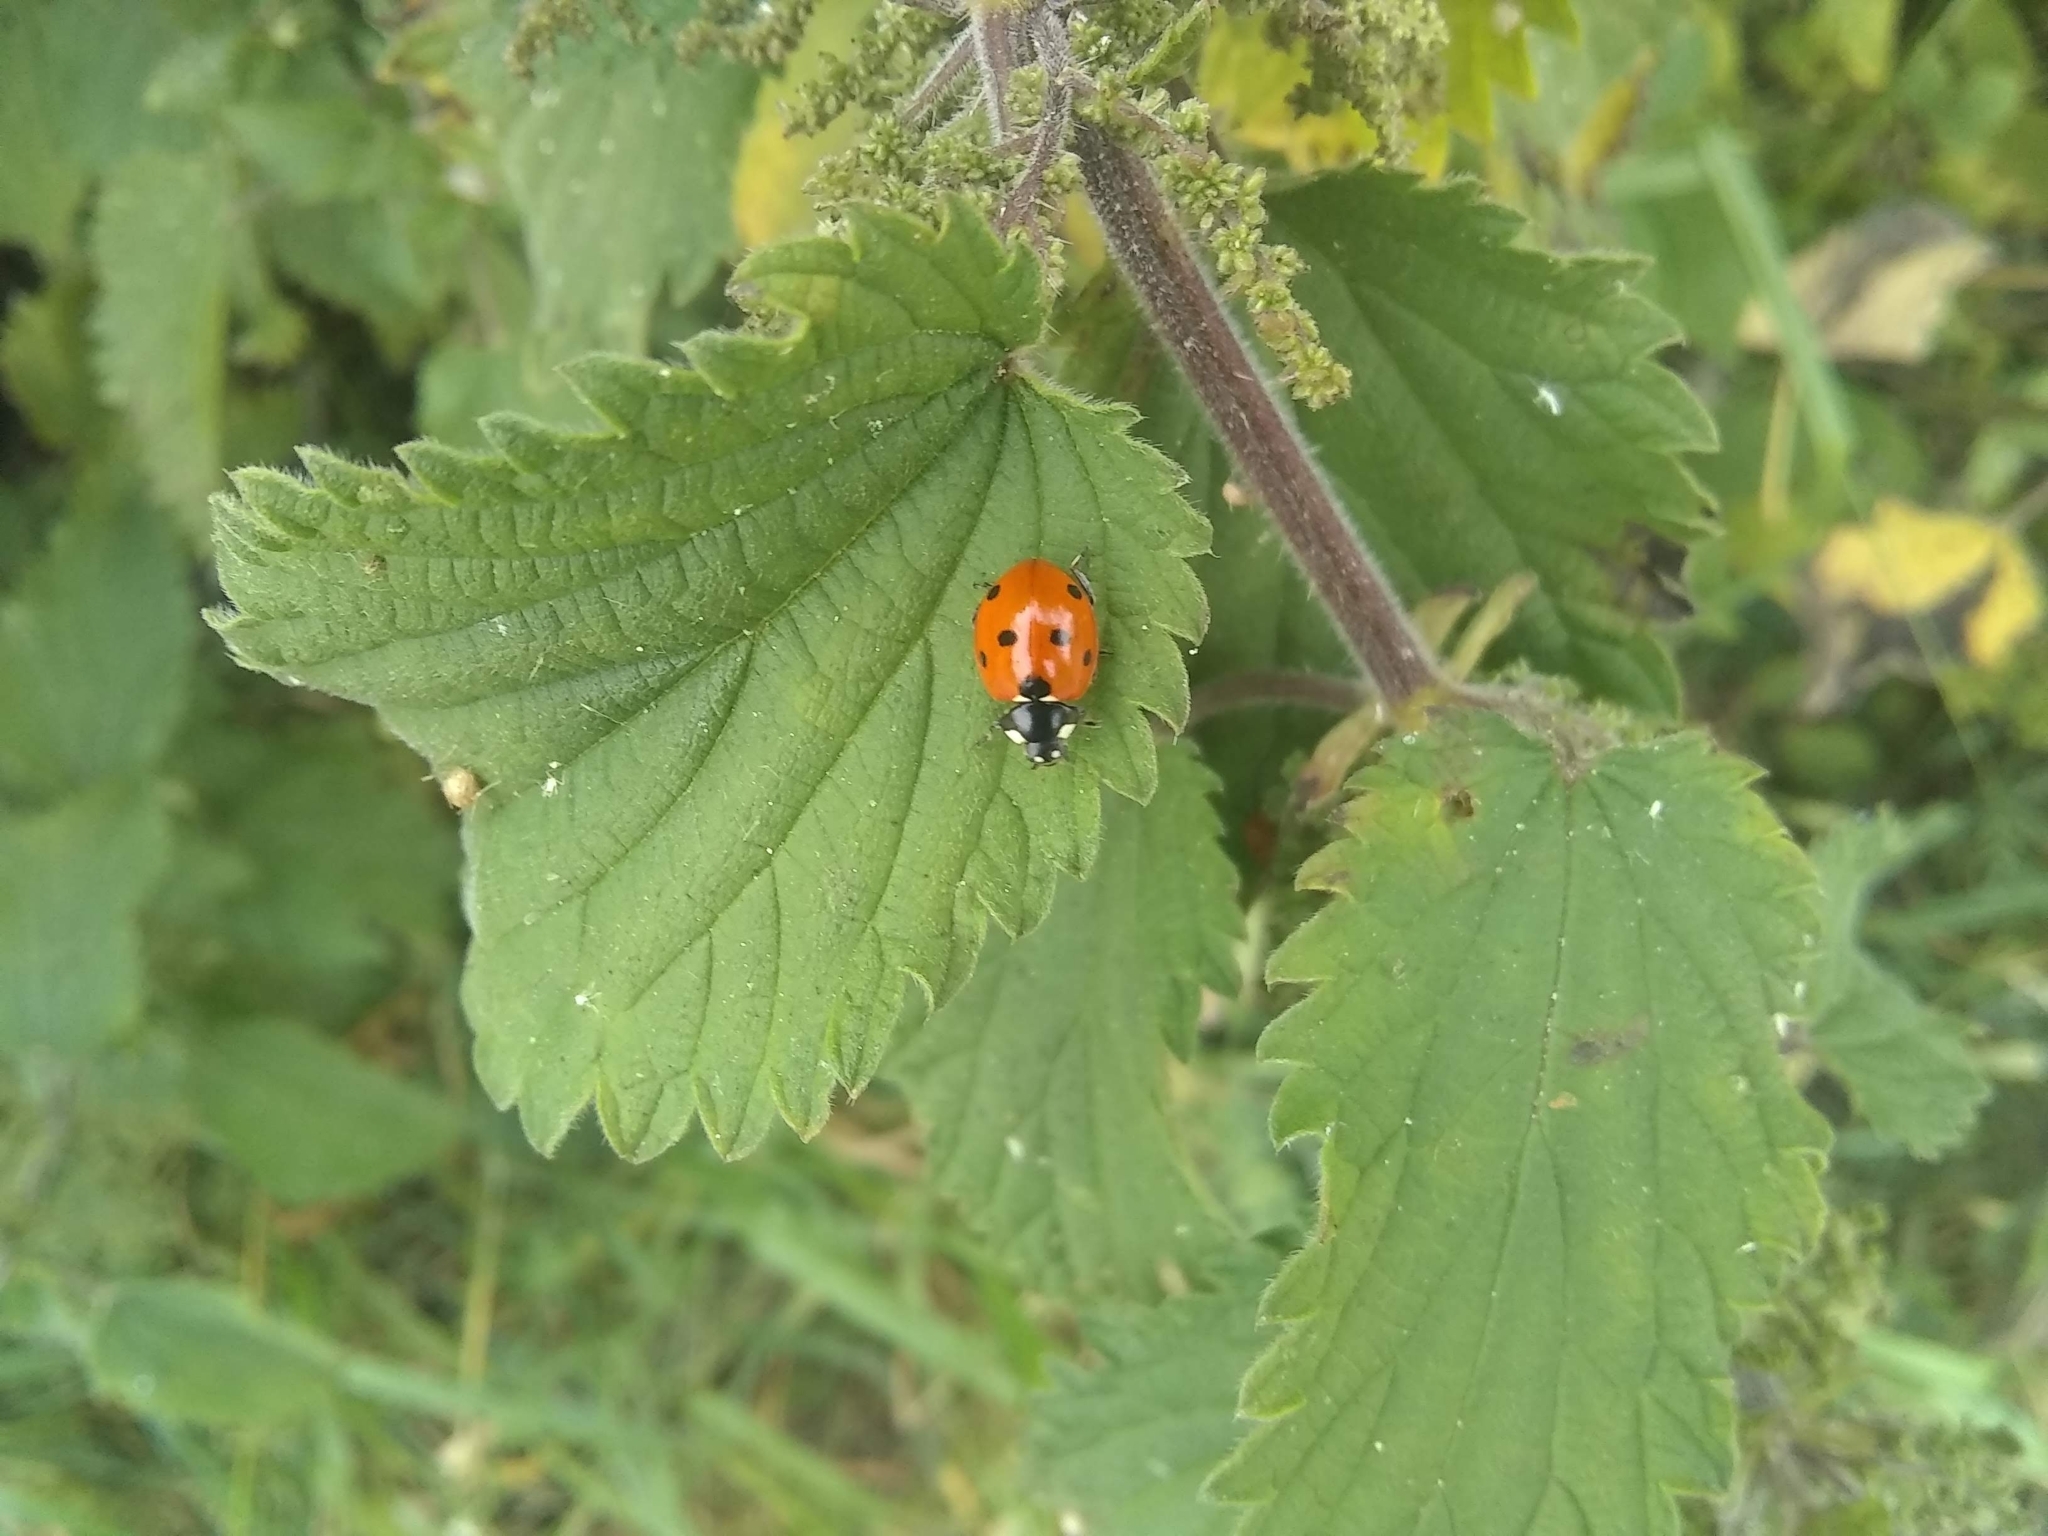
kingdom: Animalia
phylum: Arthropoda
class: Insecta
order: Coleoptera
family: Coccinellidae
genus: Coccinella
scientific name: Coccinella septempunctata
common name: Sevenspotted lady beetle
